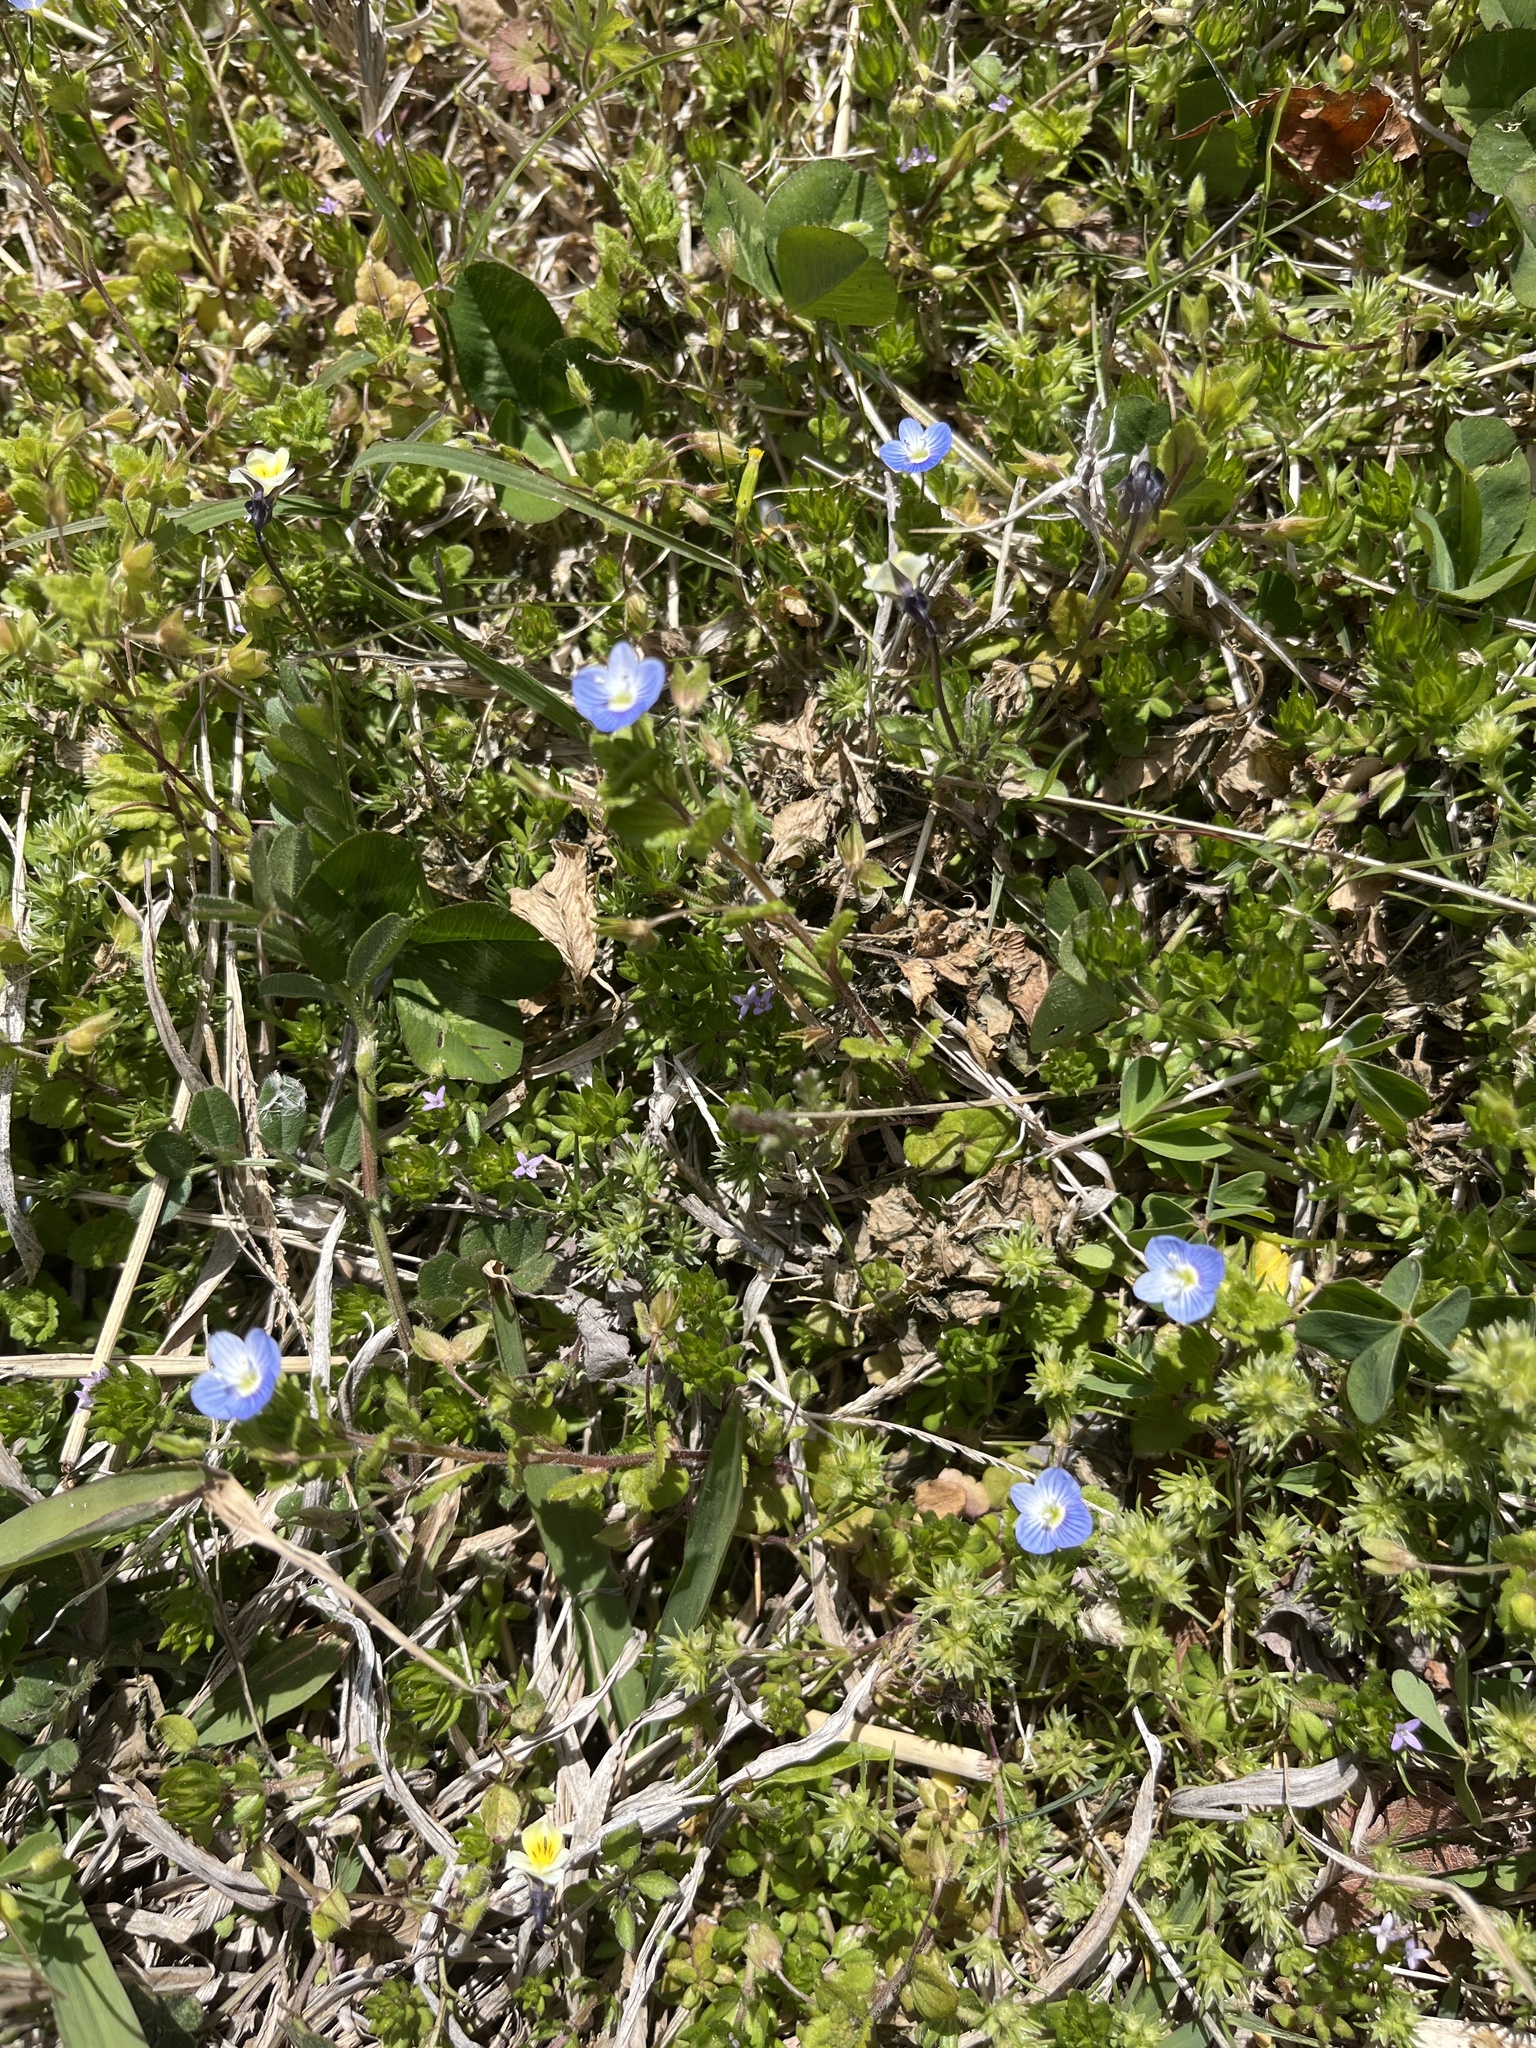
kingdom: Plantae
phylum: Tracheophyta
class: Magnoliopsida
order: Lamiales
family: Plantaginaceae
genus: Veronica
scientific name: Veronica persica
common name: Common field-speedwell
